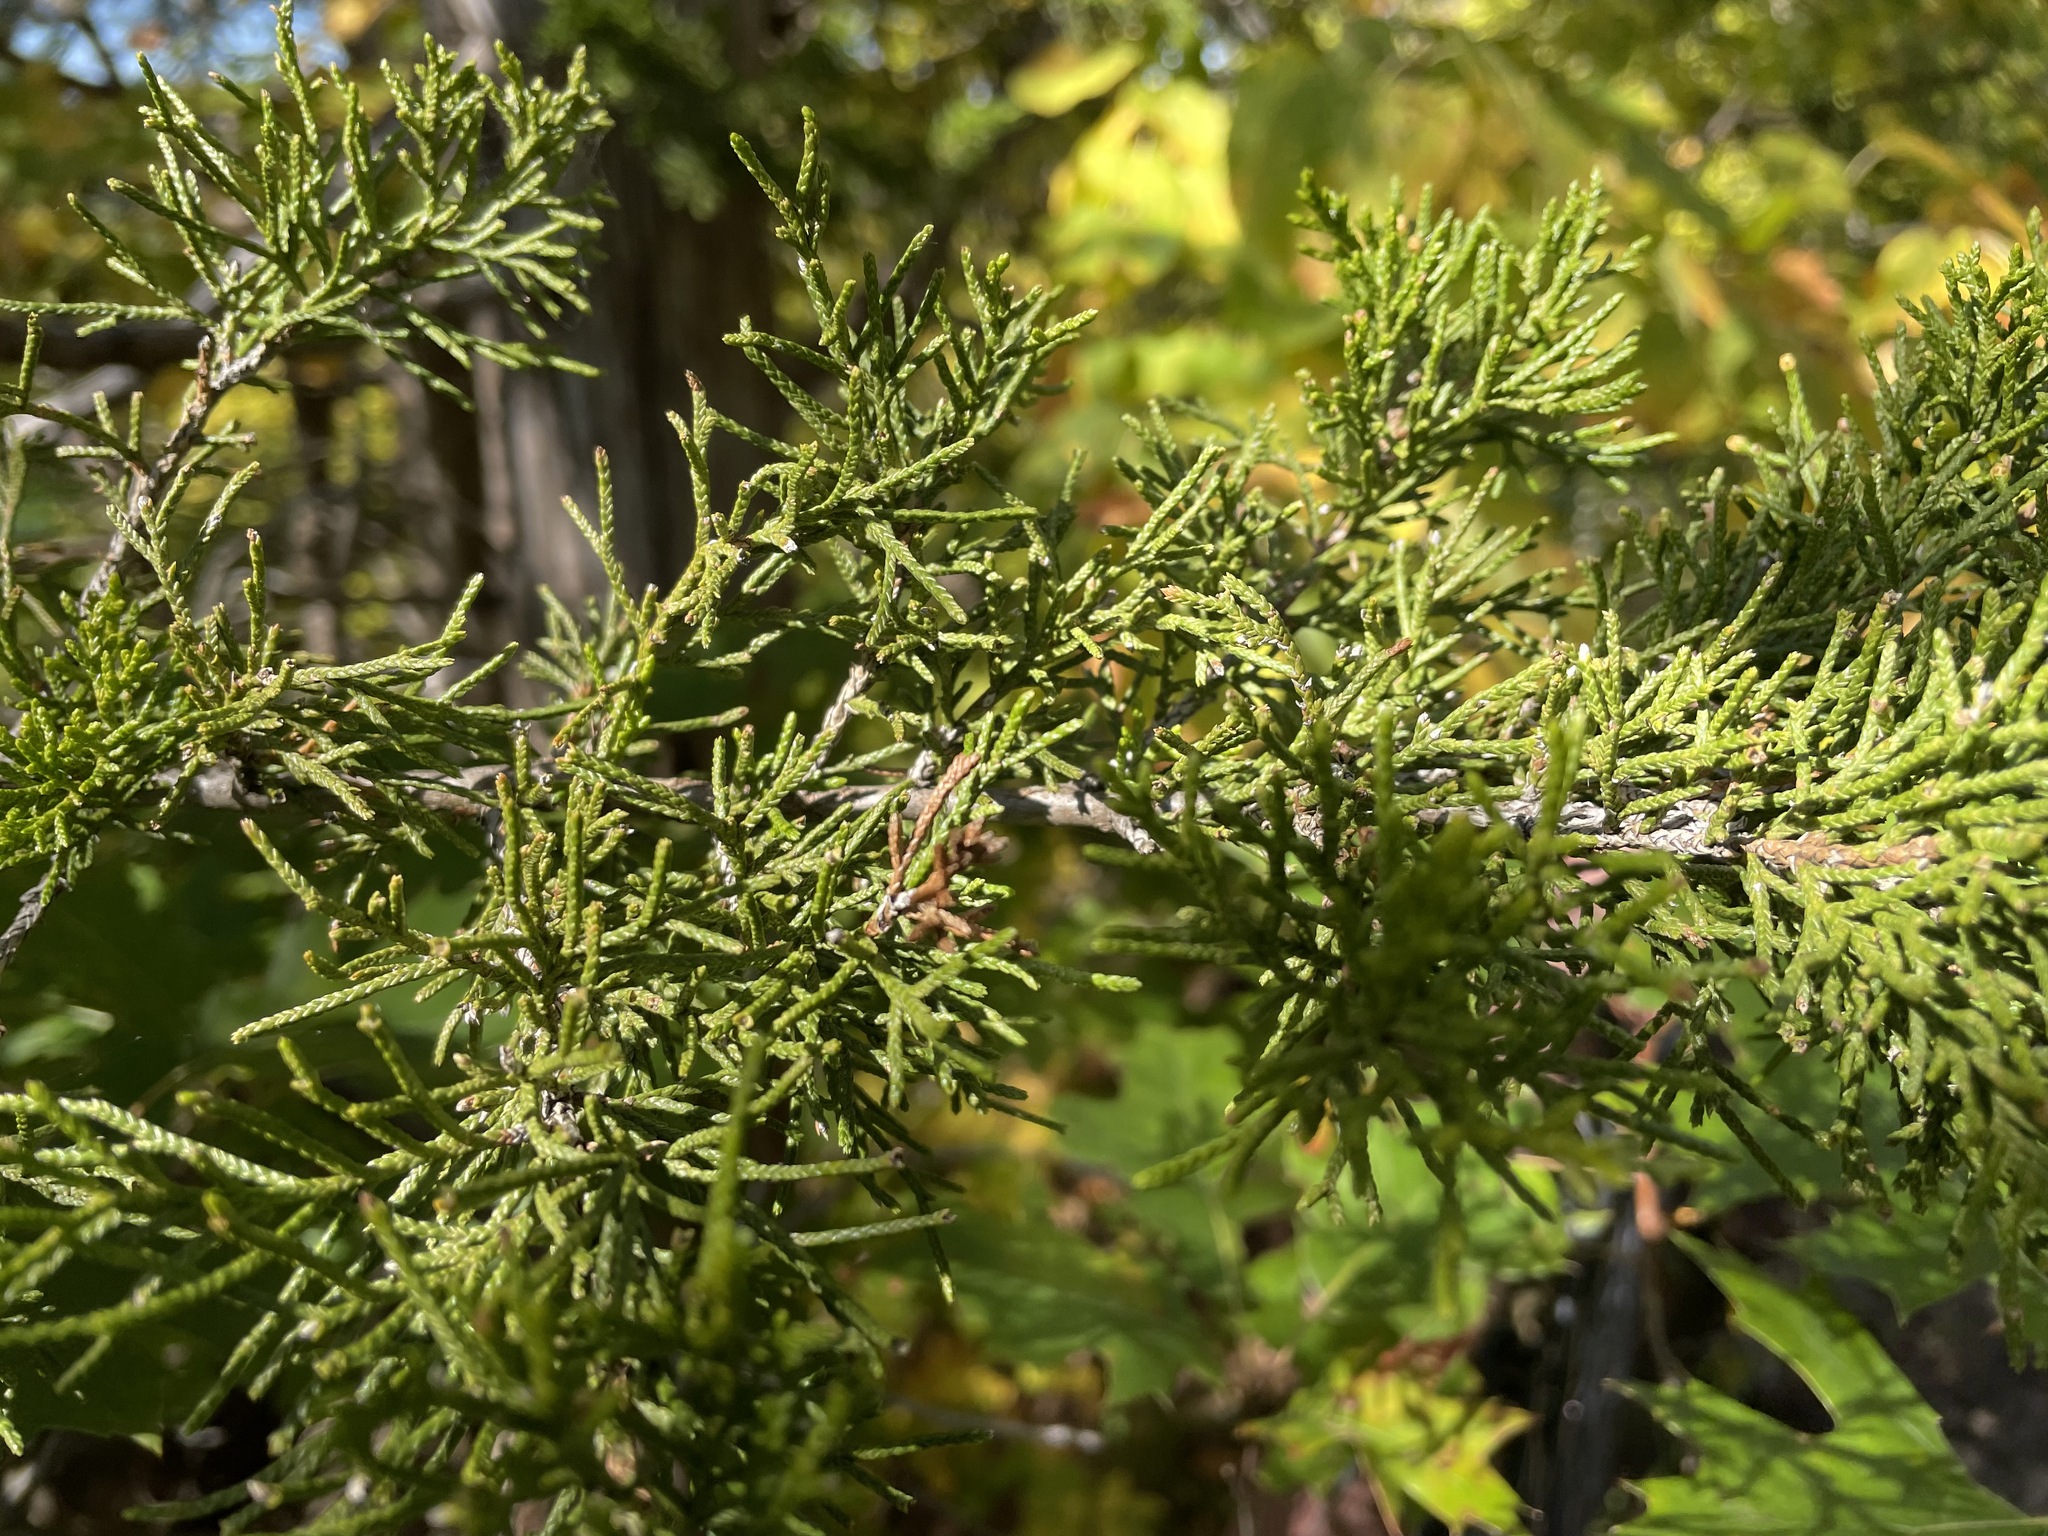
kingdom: Plantae
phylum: Tracheophyta
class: Pinopsida
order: Pinales
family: Cupressaceae
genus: Juniperus
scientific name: Juniperus virginiana
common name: Red juniper
